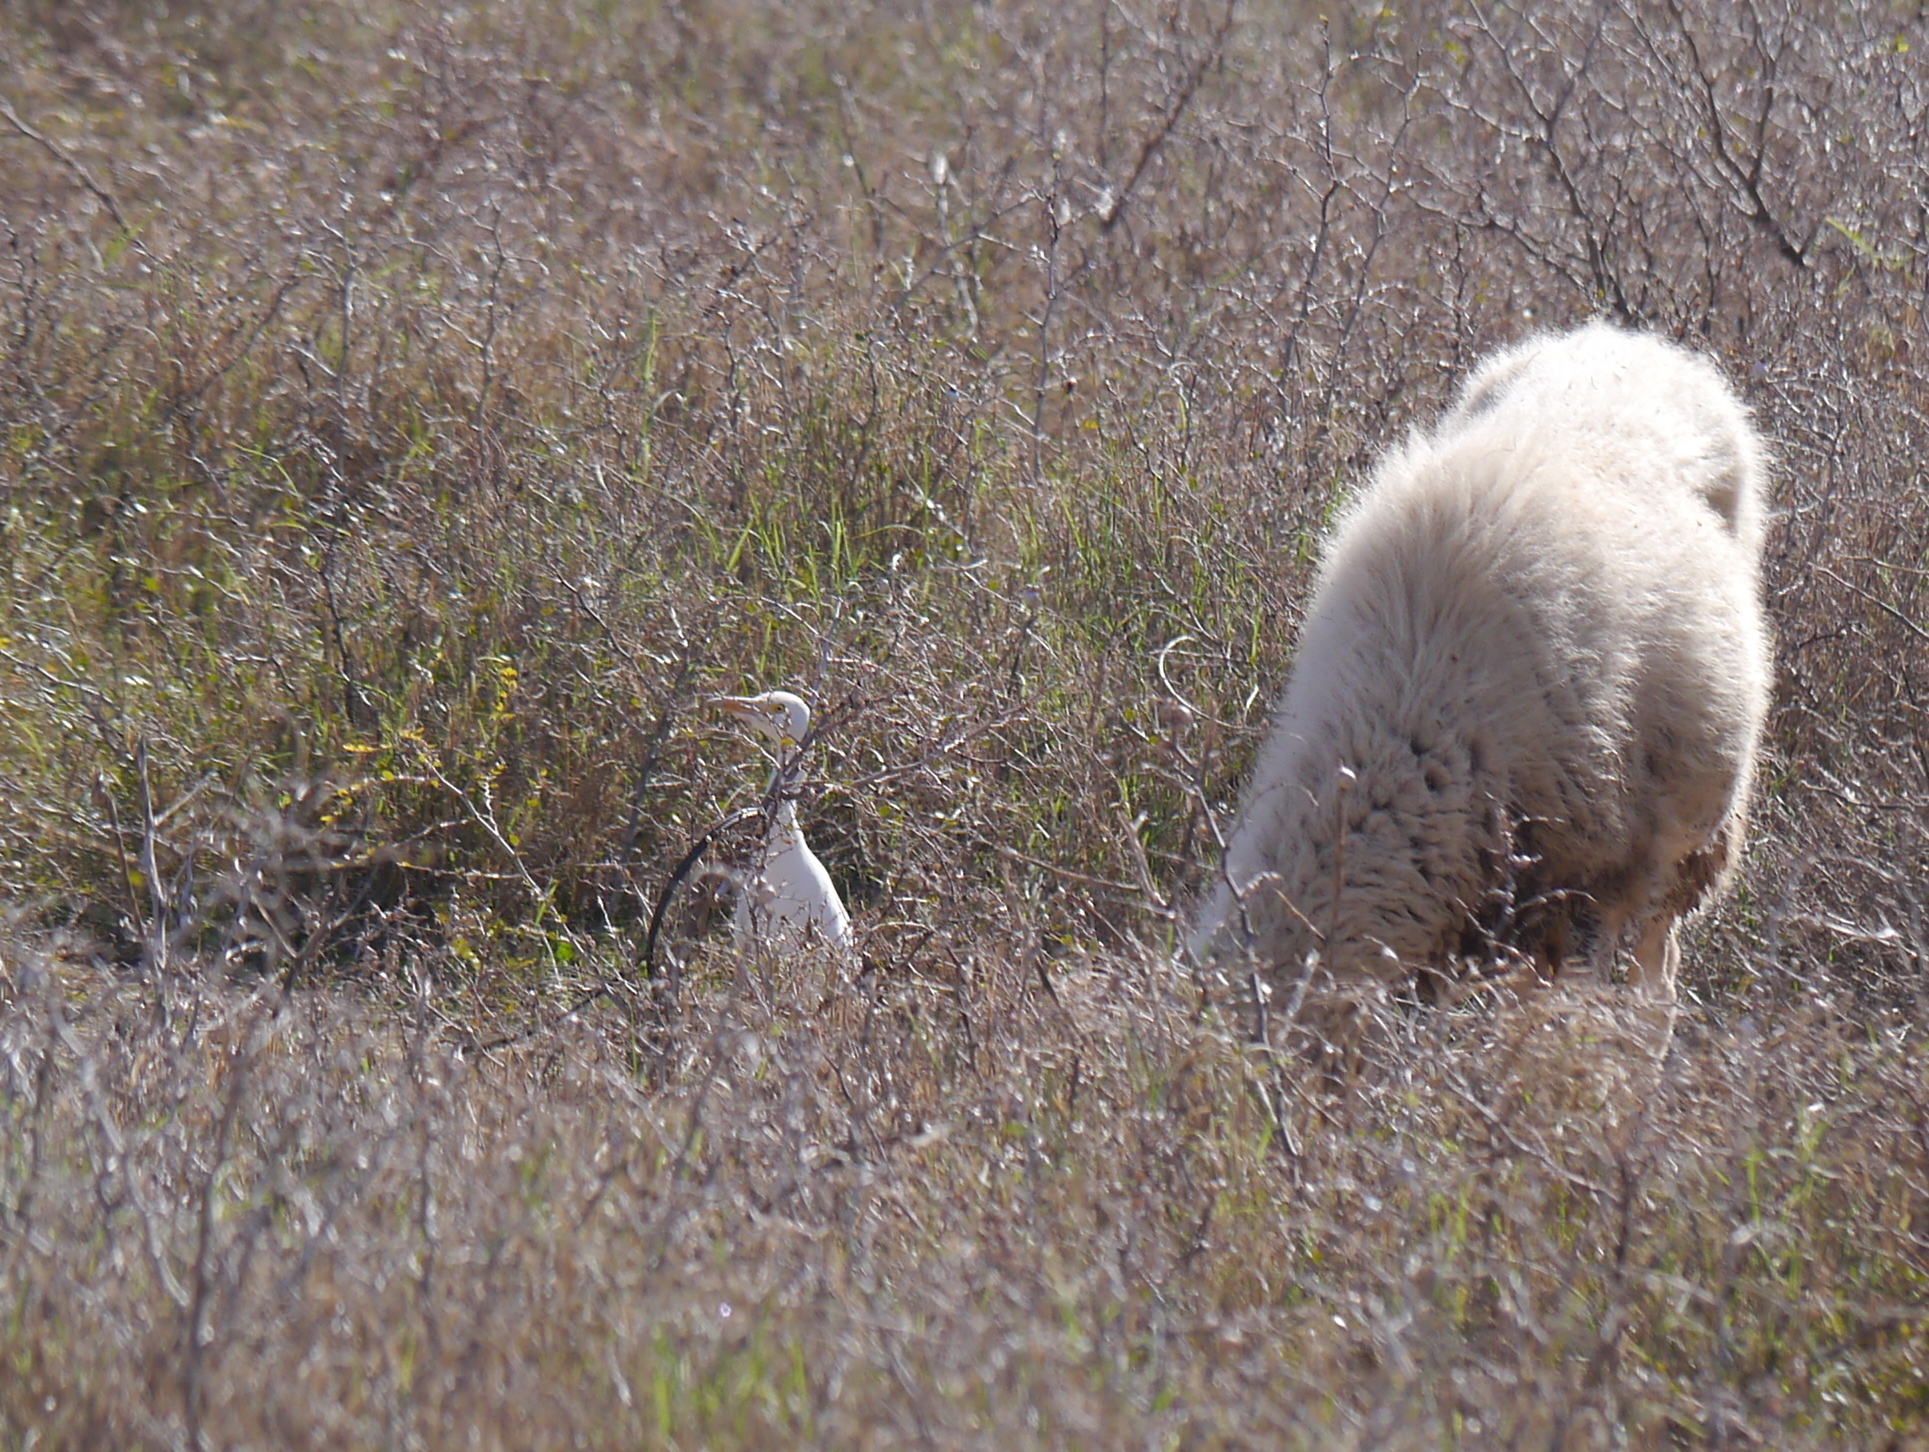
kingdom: Animalia
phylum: Chordata
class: Aves
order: Pelecaniformes
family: Ardeidae
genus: Bubulcus
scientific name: Bubulcus ibis
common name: Cattle egret
